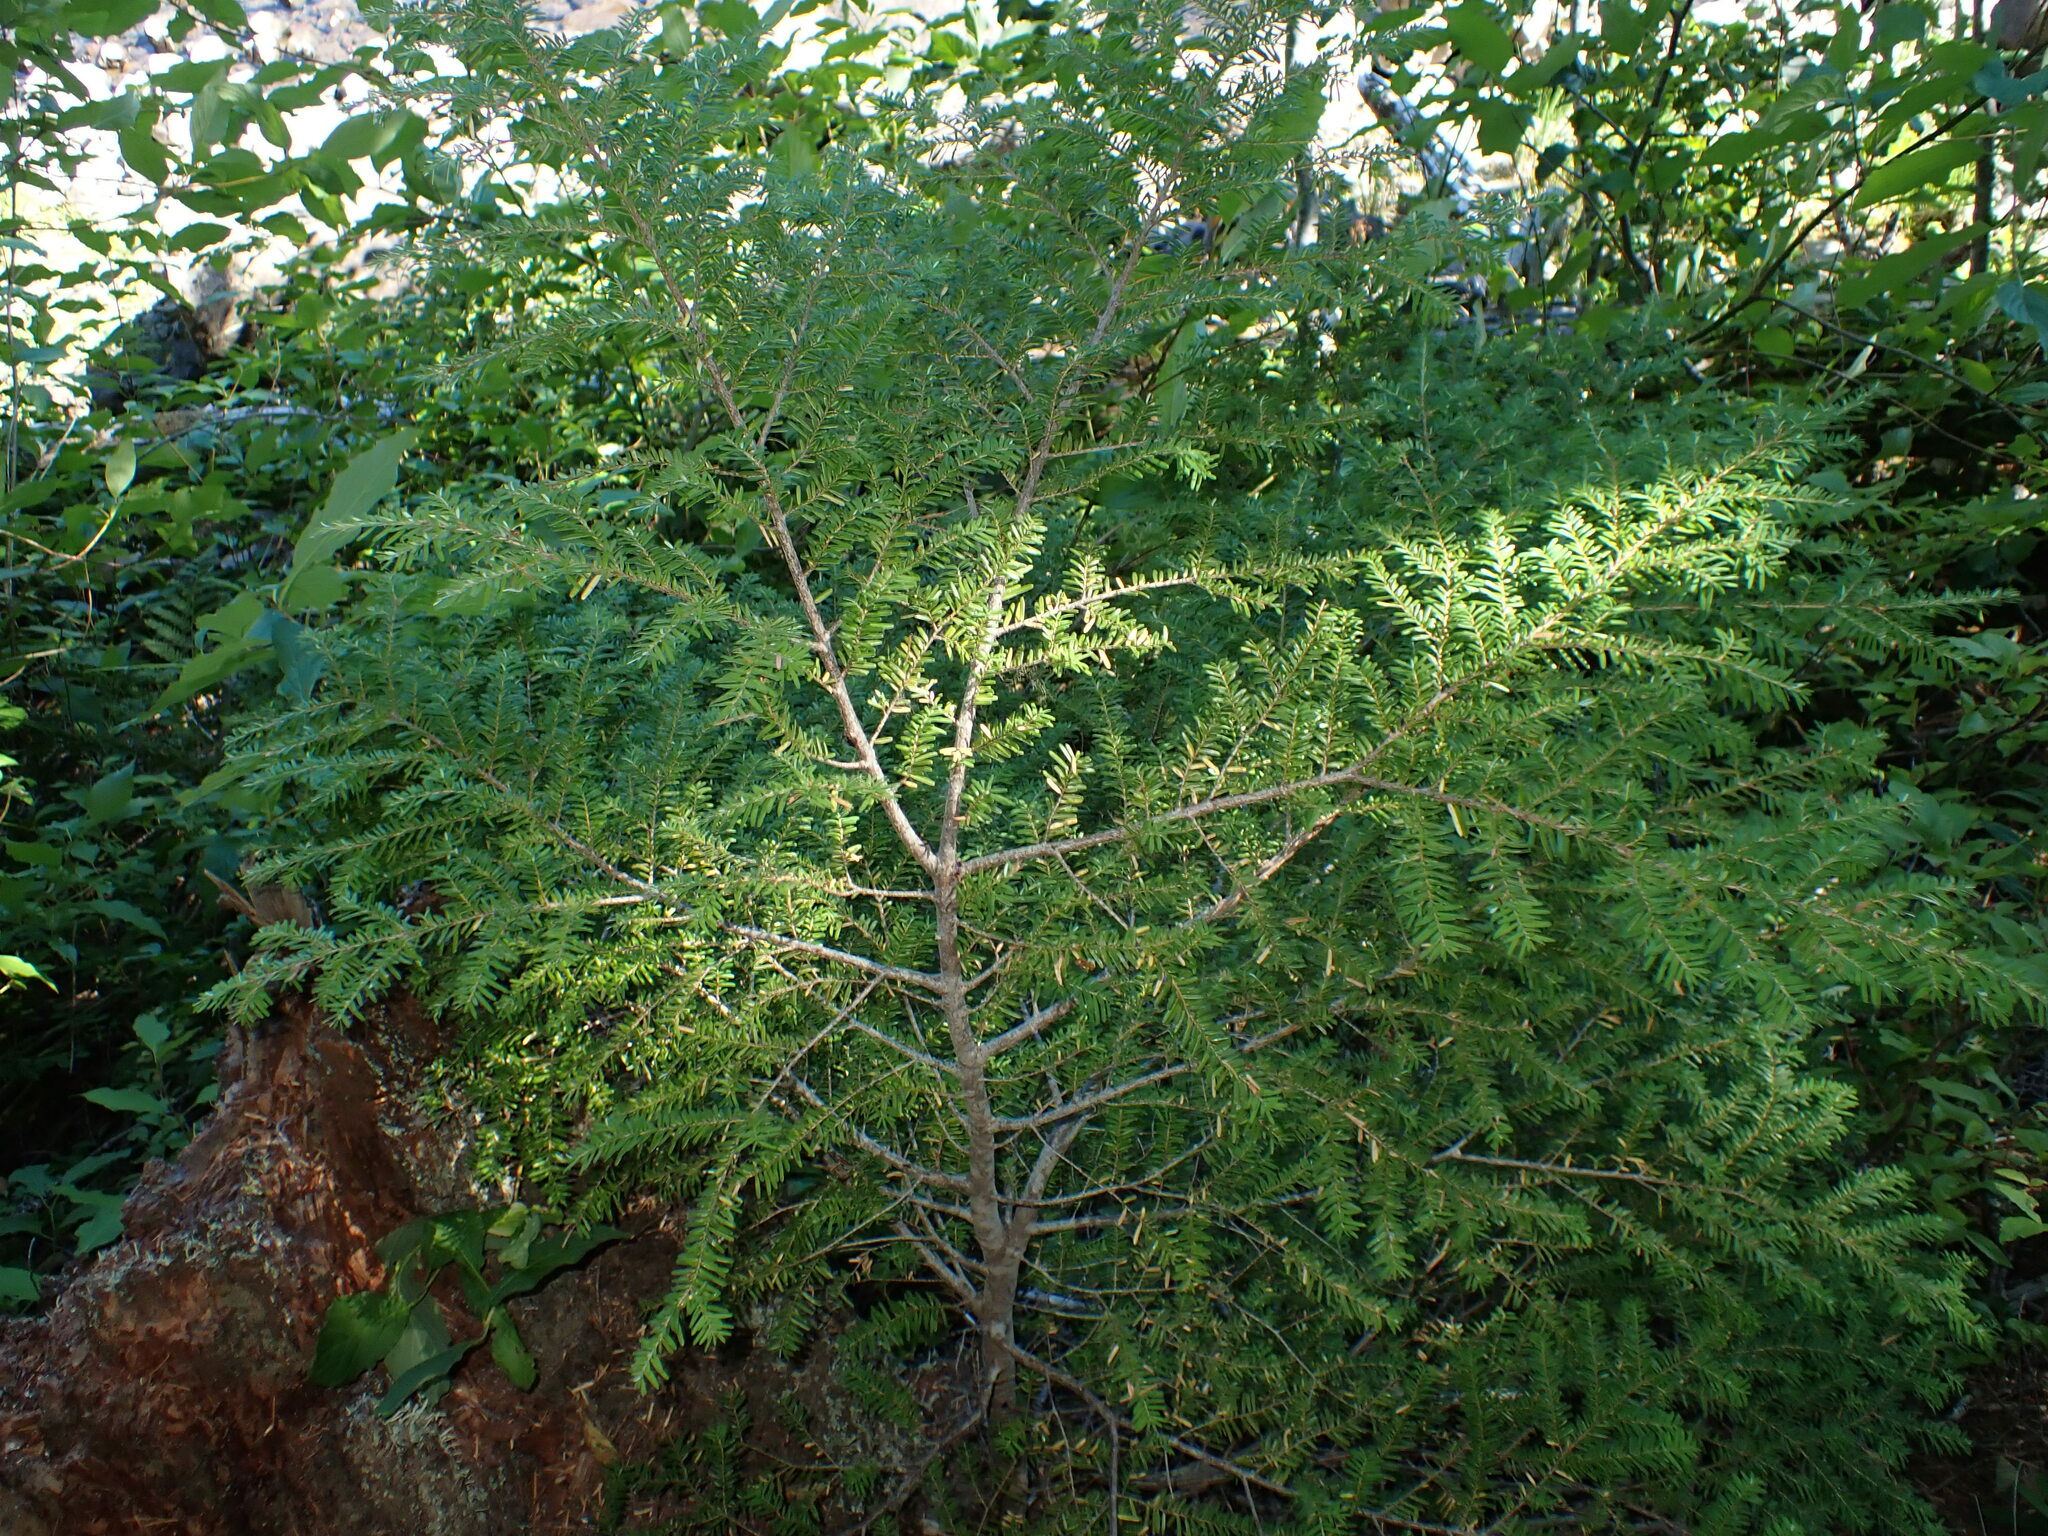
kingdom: Plantae
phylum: Tracheophyta
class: Pinopsida
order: Pinales
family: Pinaceae
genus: Tsuga
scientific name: Tsuga heterophylla
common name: Western hemlock
